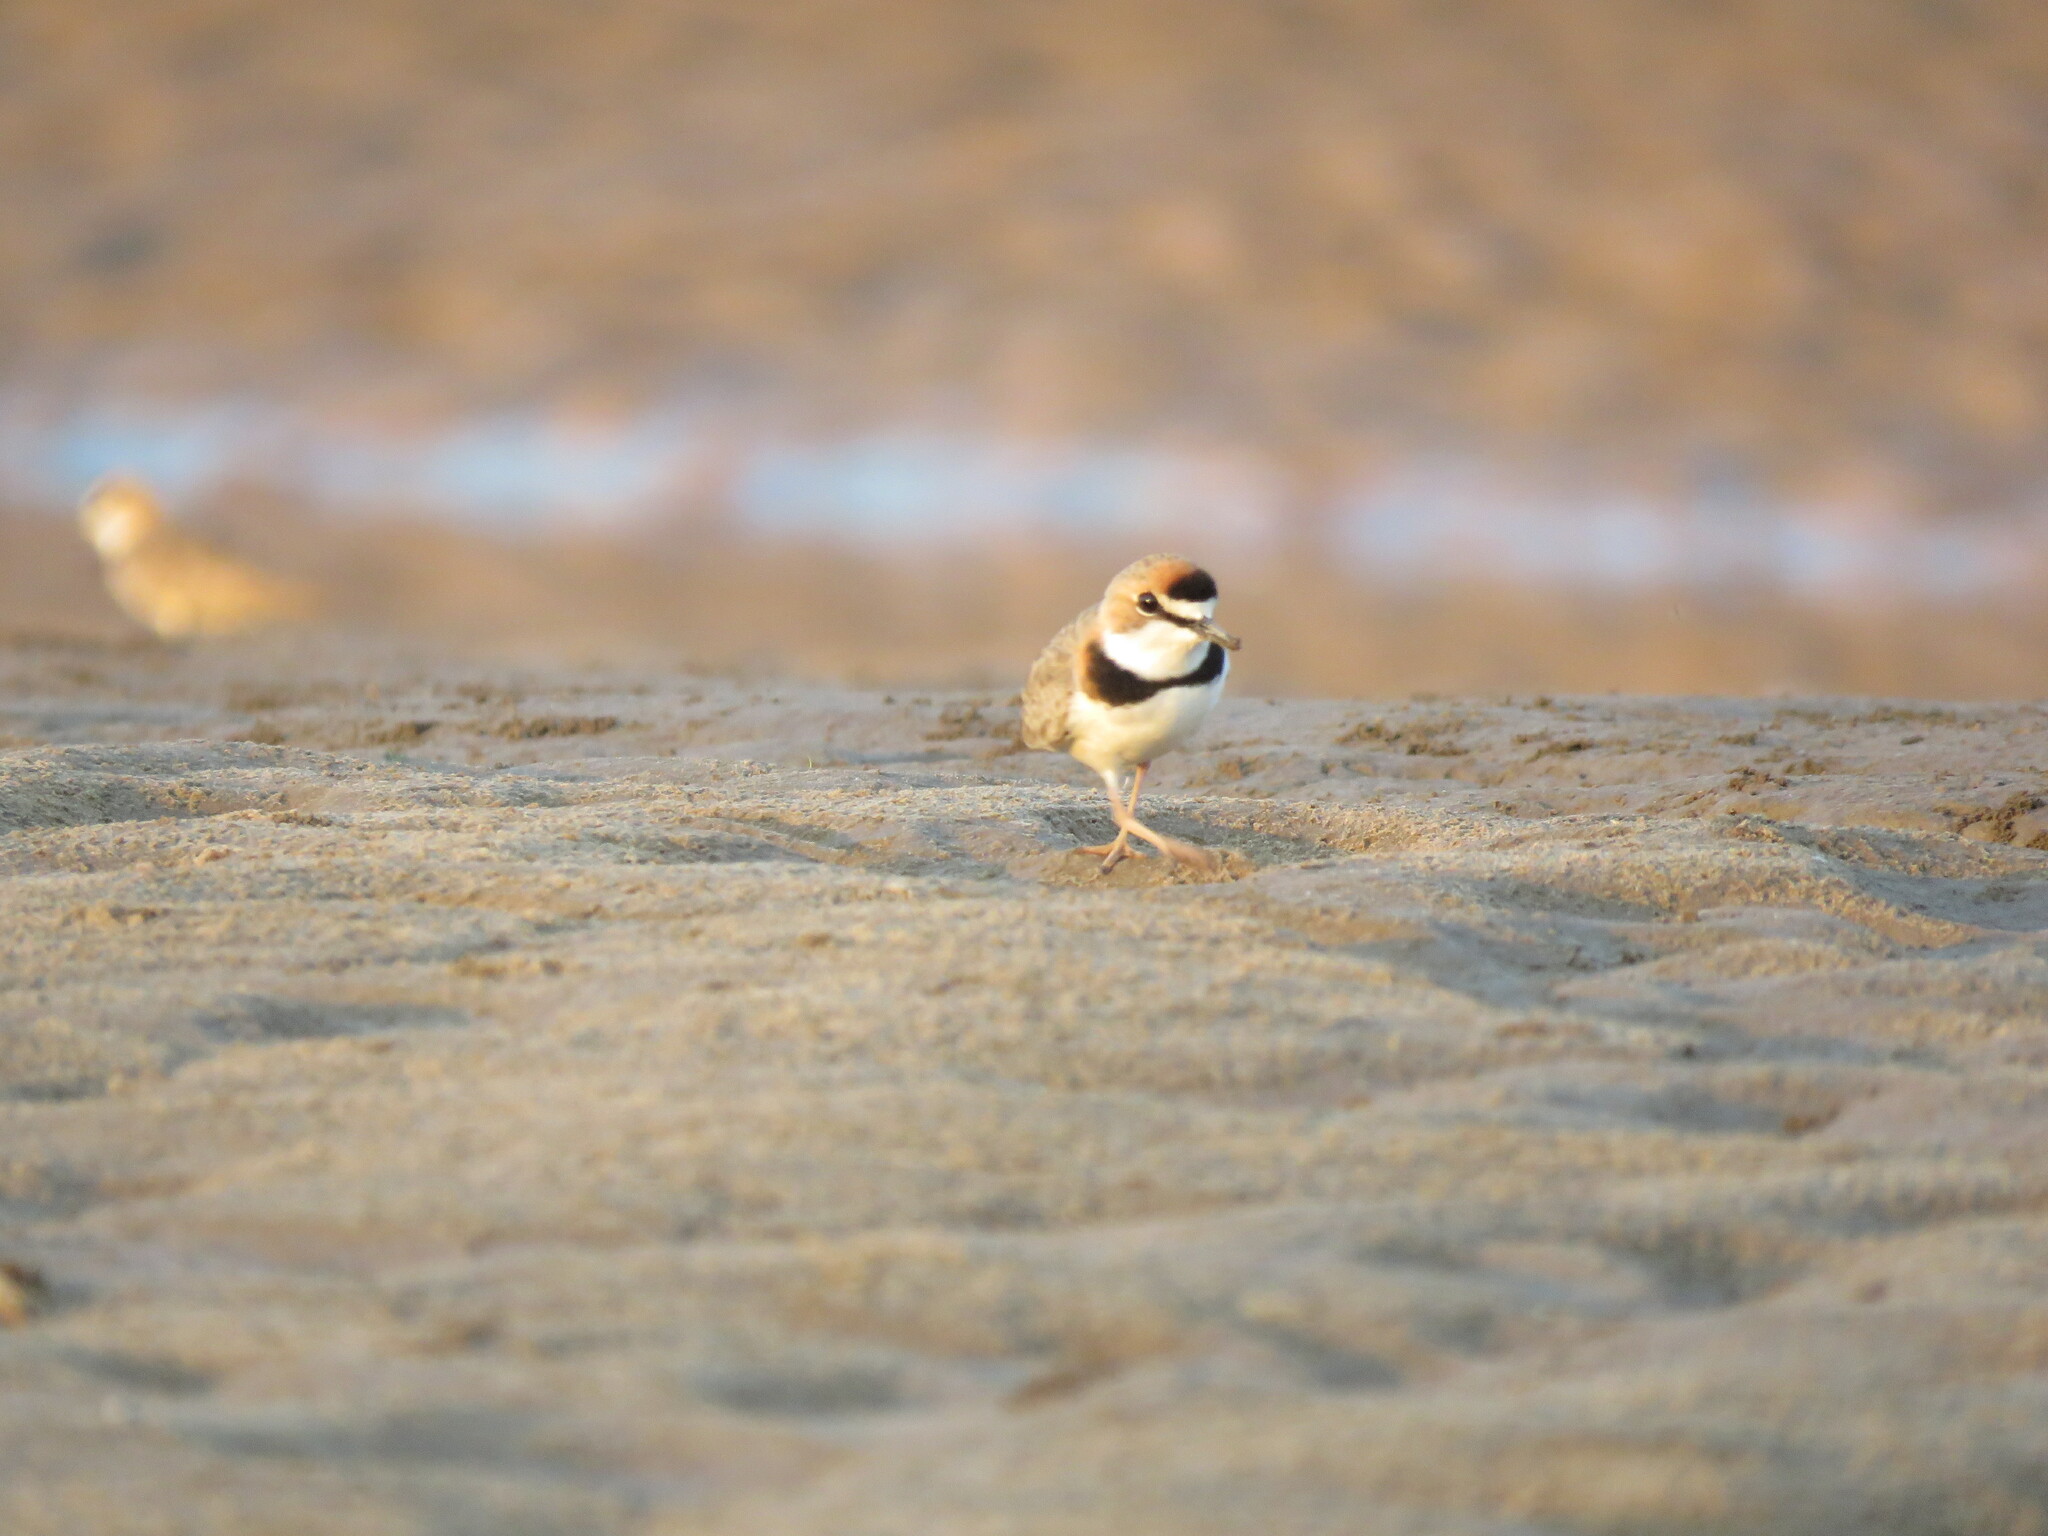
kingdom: Animalia
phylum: Chordata
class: Aves
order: Charadriiformes
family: Charadriidae
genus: Anarhynchus
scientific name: Anarhynchus
